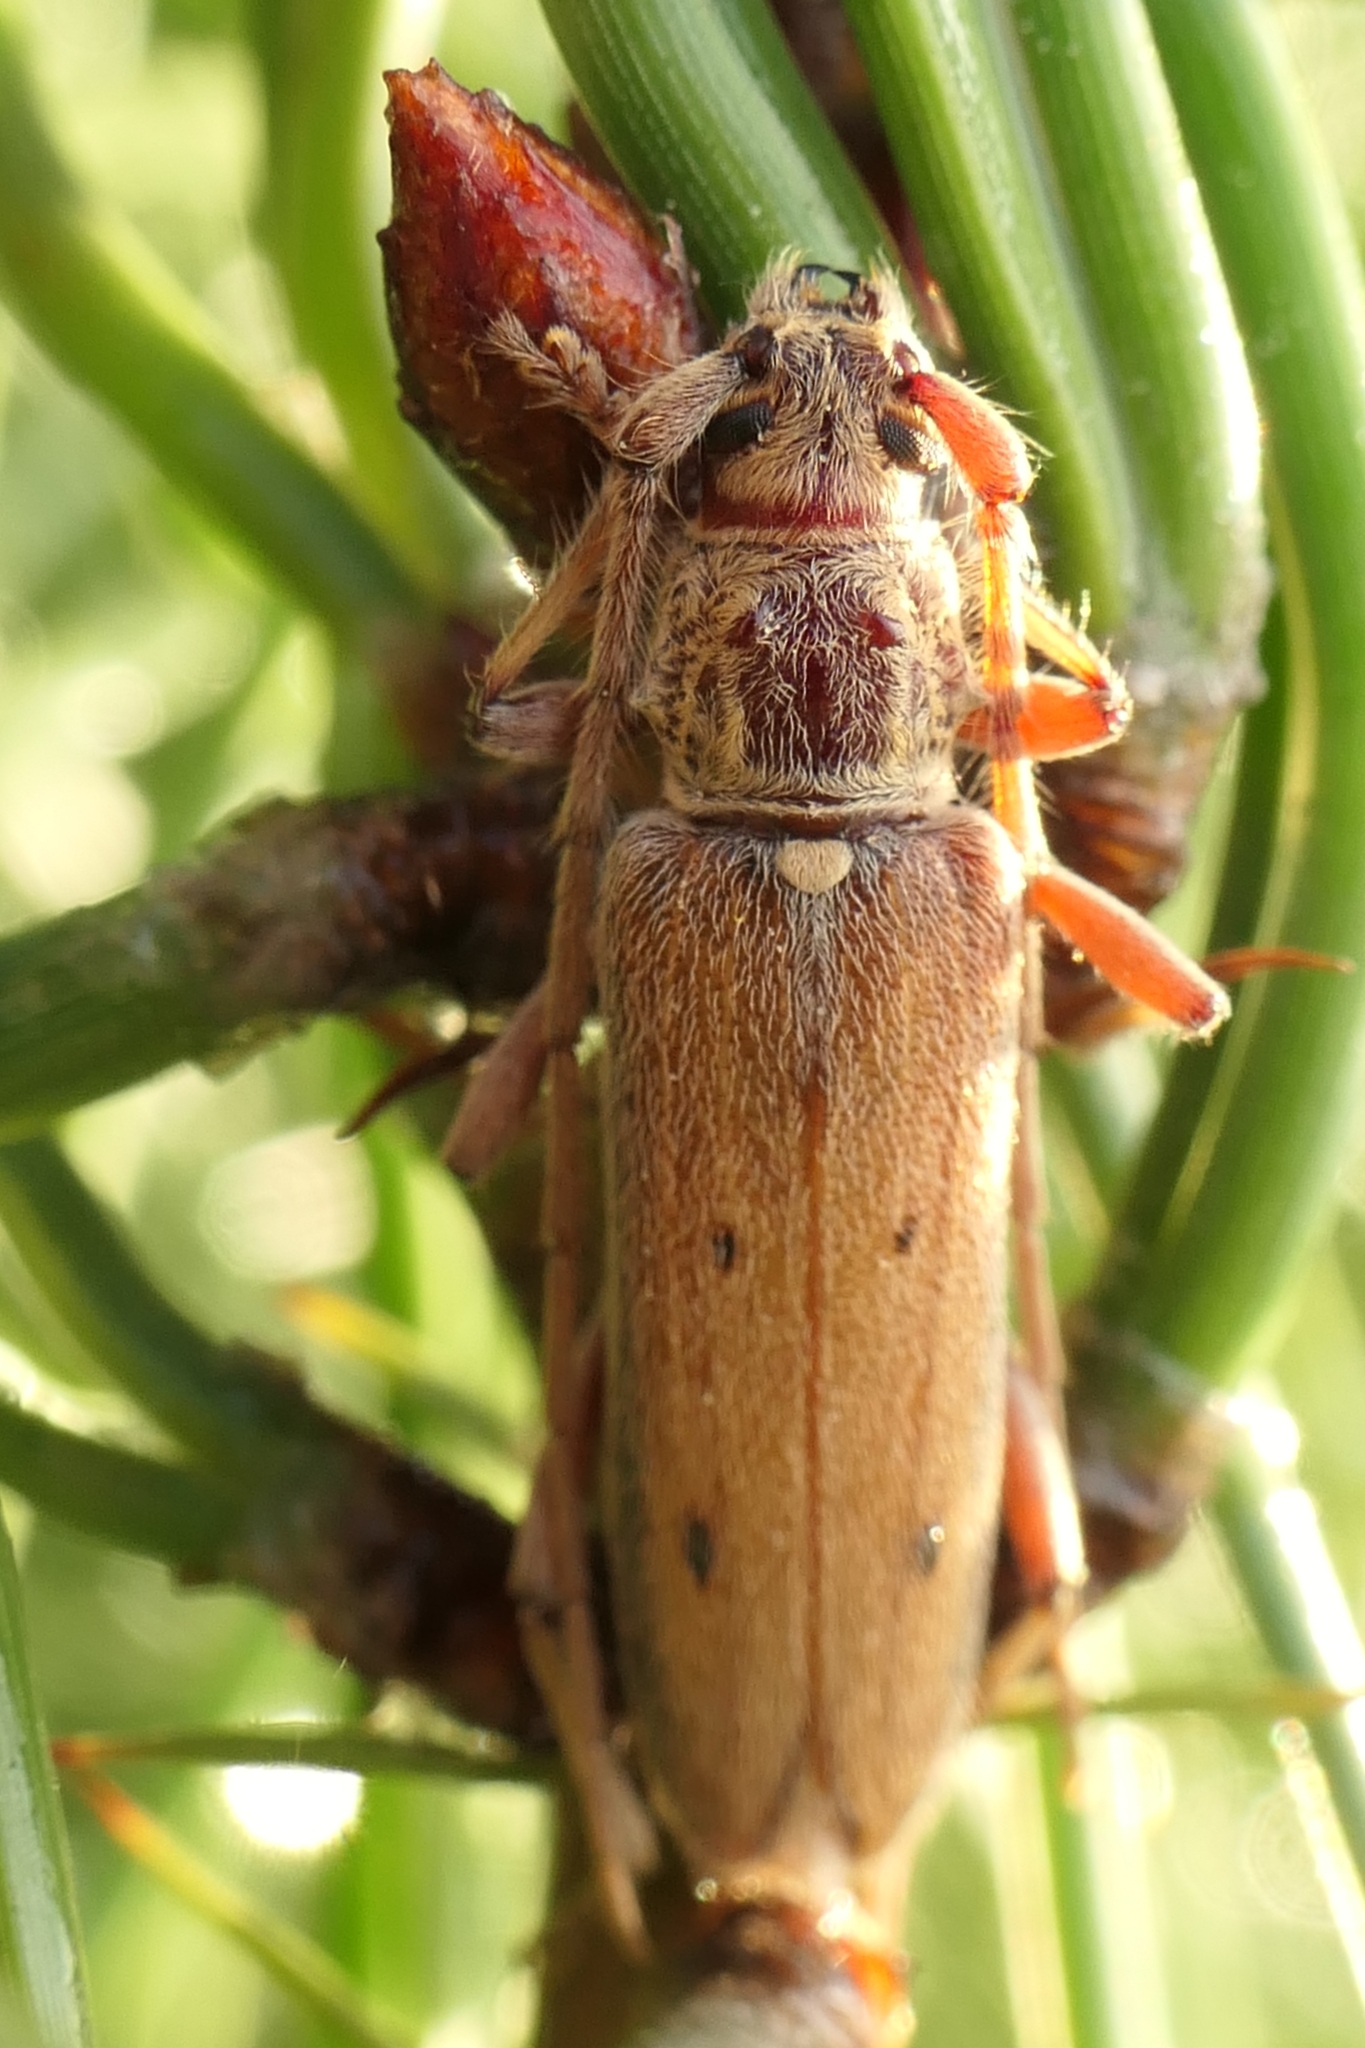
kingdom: Animalia
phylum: Arthropoda
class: Insecta
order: Coleoptera
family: Cerambycidae
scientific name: Cerambycidae
